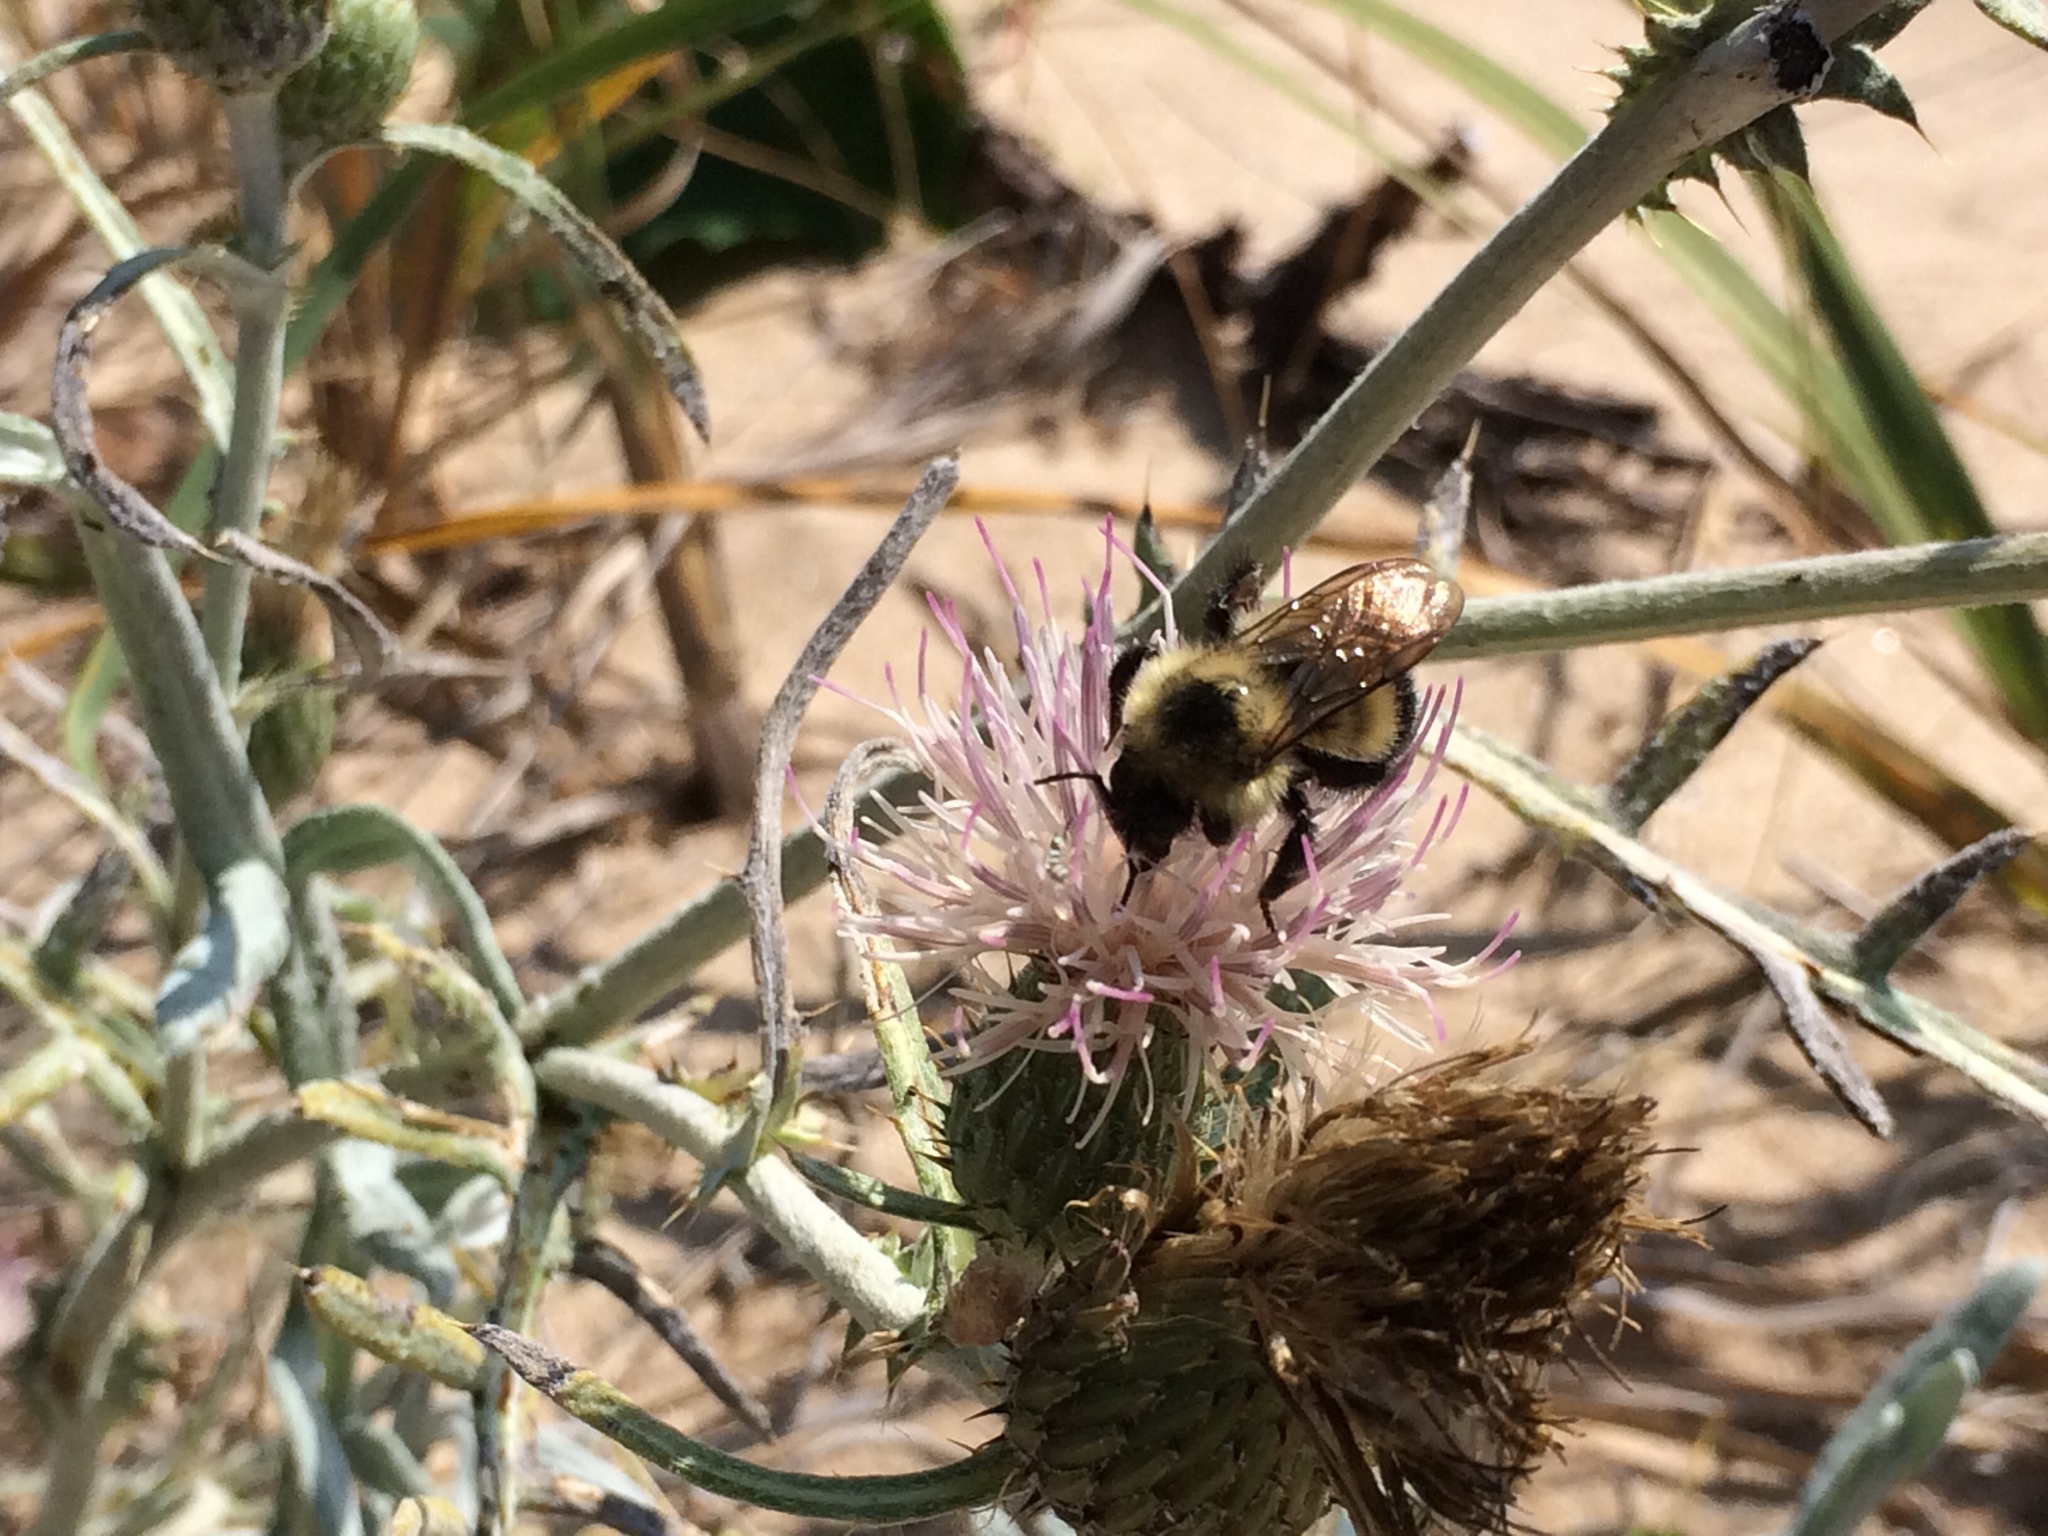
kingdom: Plantae
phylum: Tracheophyta
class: Magnoliopsida
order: Asterales
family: Asteraceae
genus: Cirsium
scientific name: Cirsium pitcheri
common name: Dune thistle
